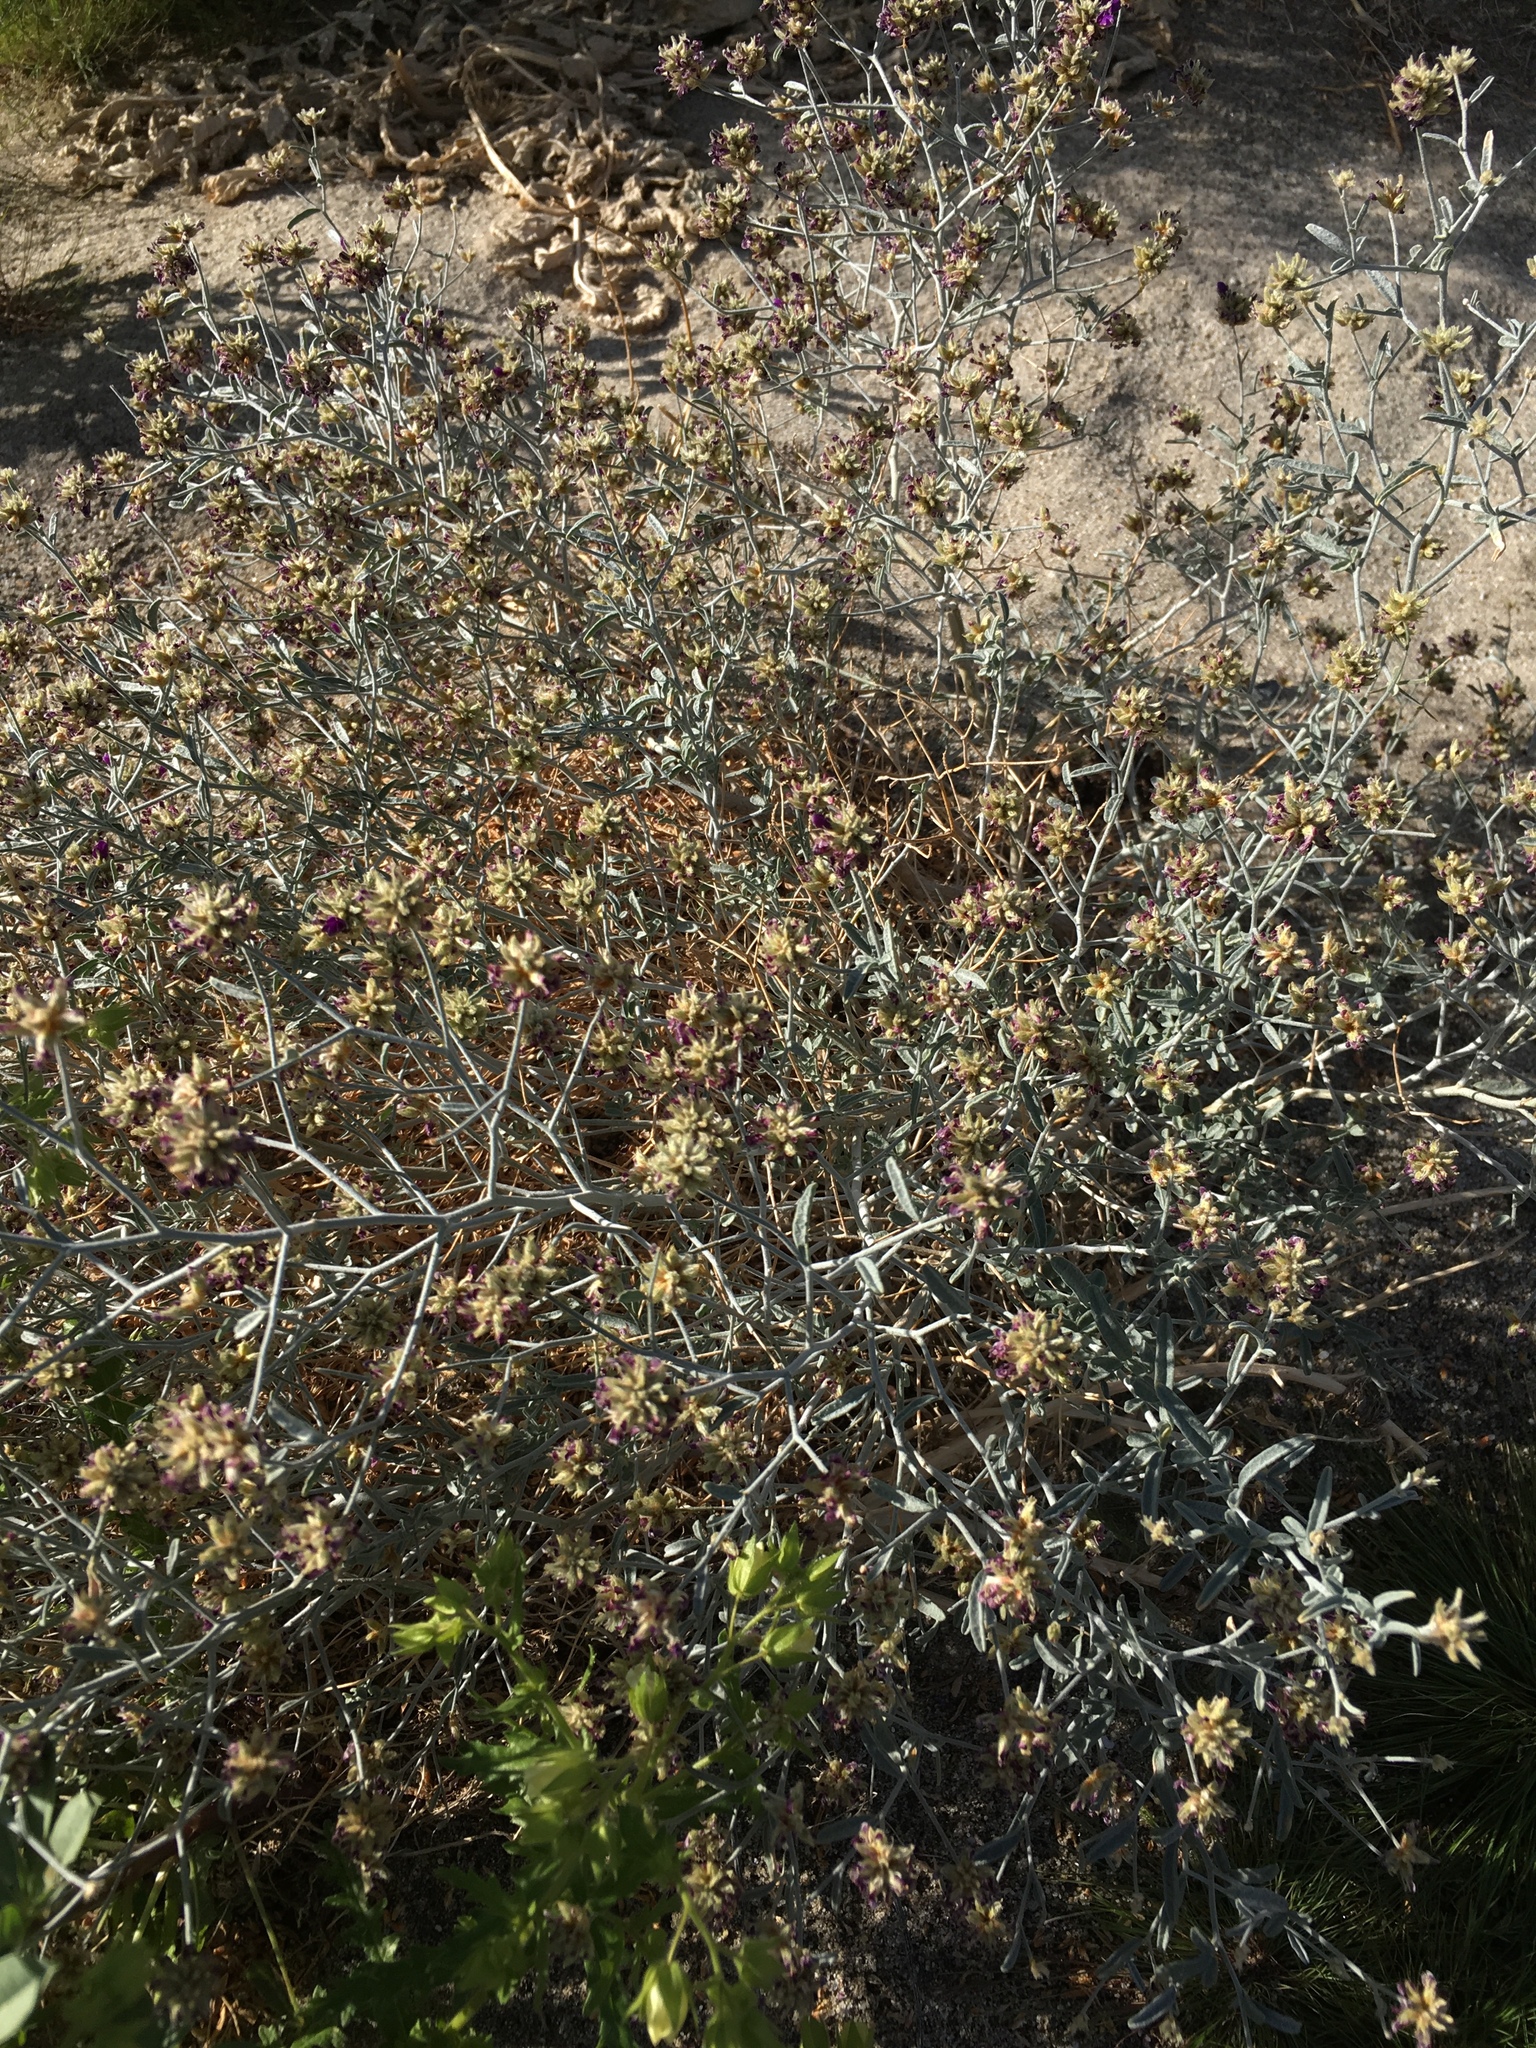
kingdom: Plantae
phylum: Tracheophyta
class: Magnoliopsida
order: Fabales
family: Fabaceae
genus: Psorothamnus
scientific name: Psorothamnus emoryi
